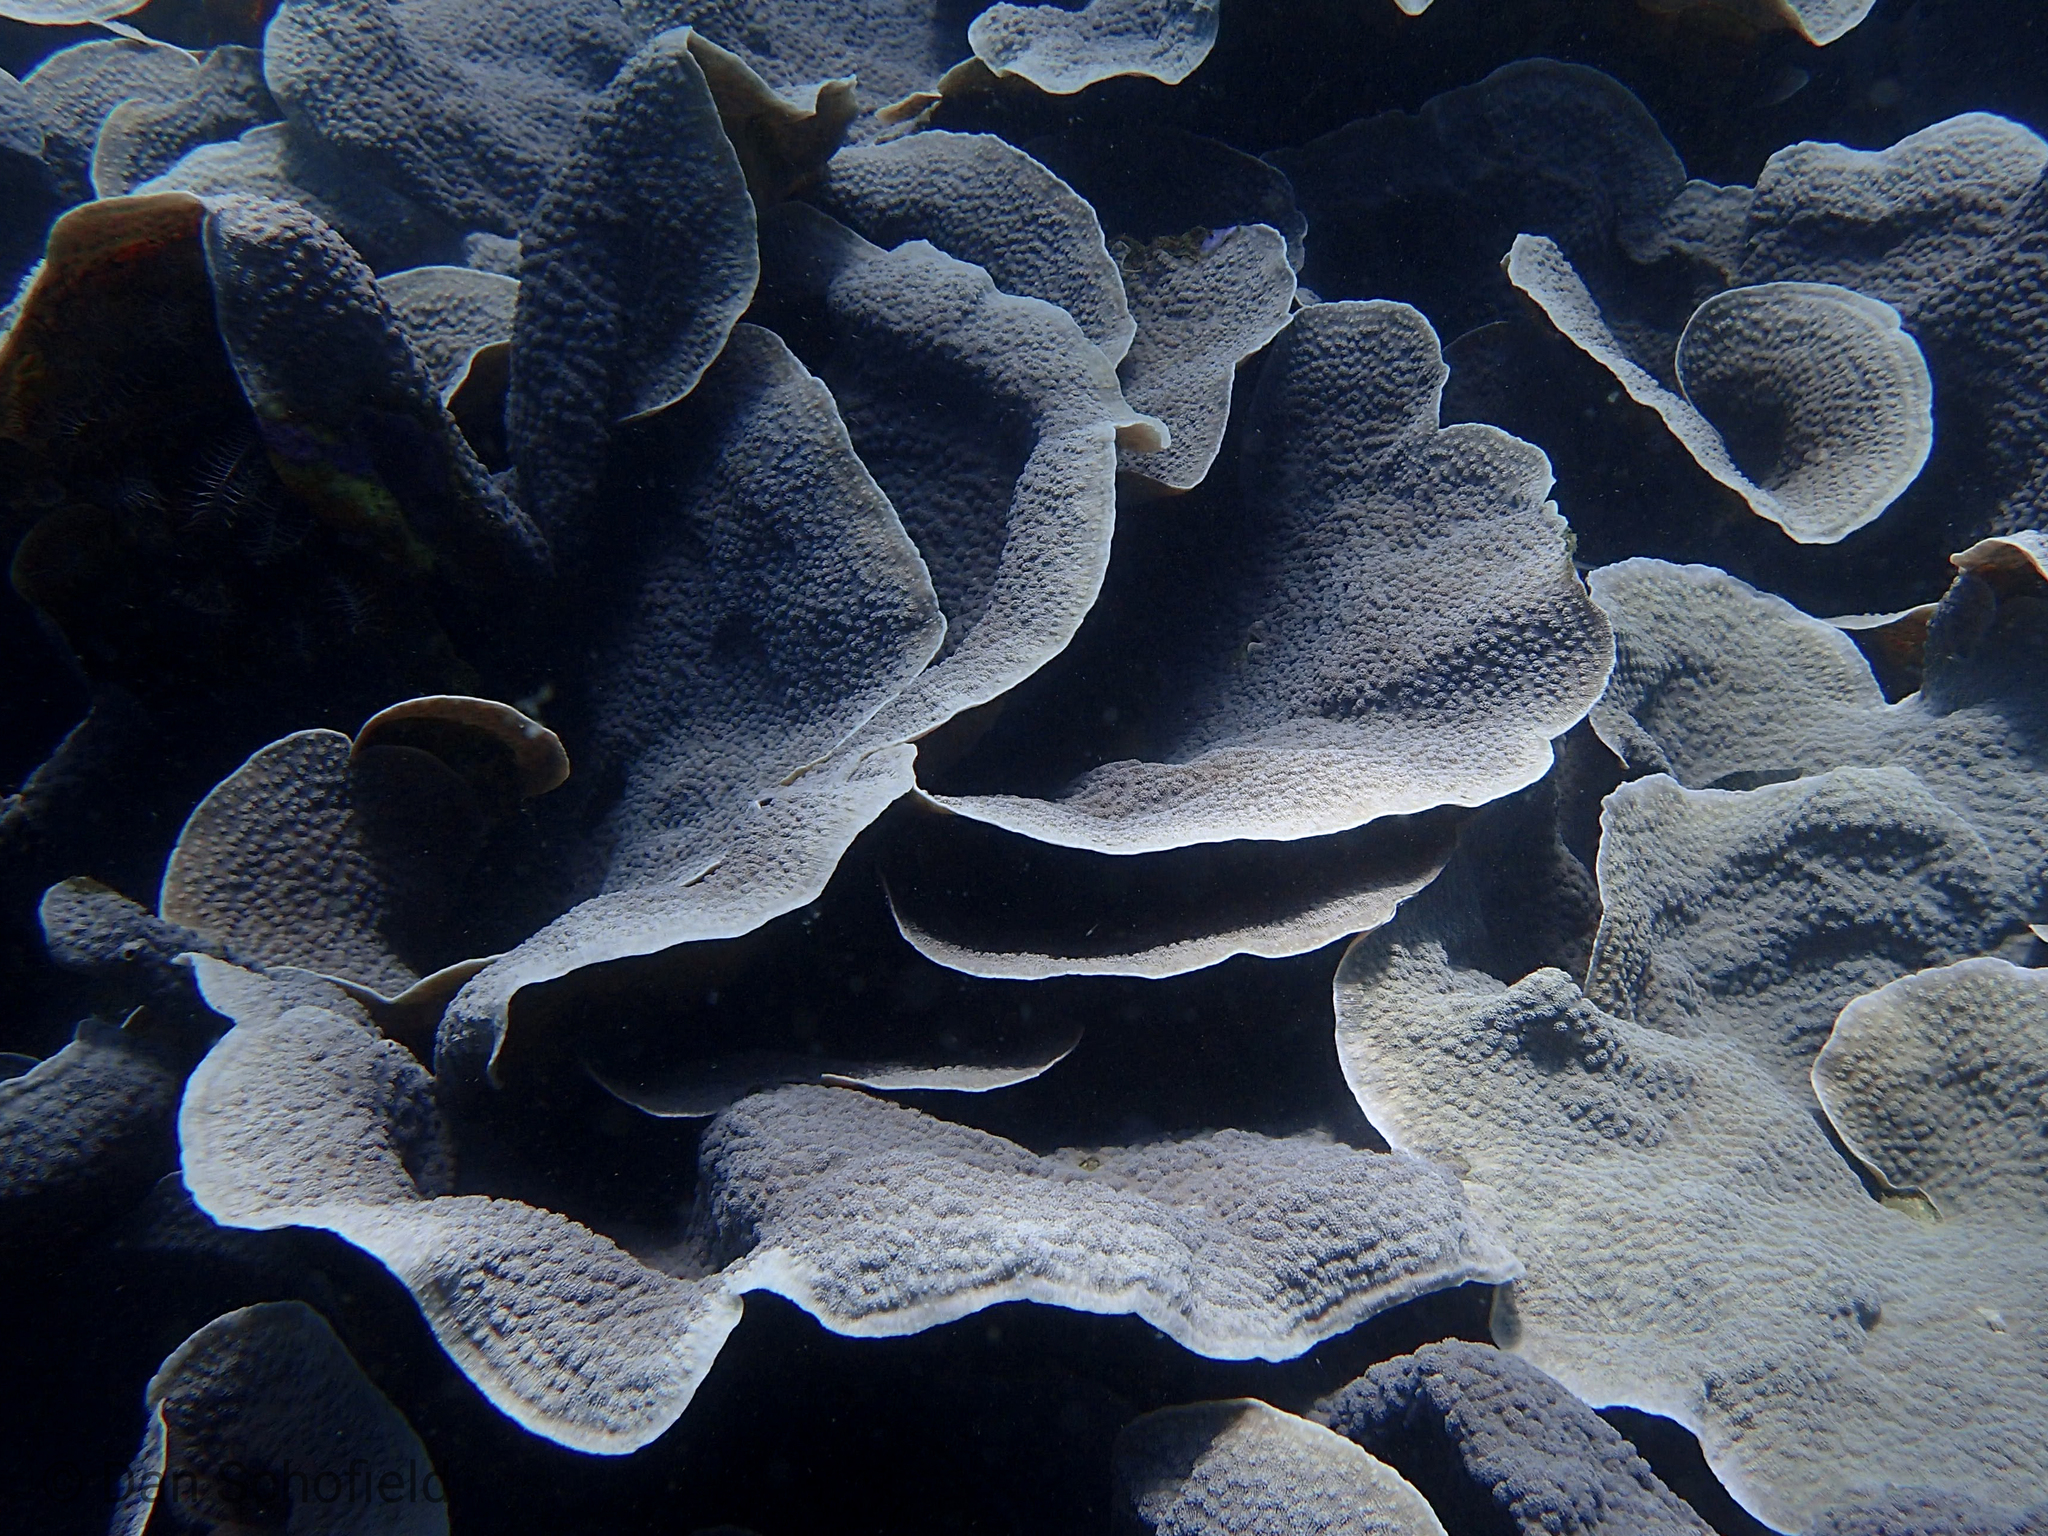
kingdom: Animalia
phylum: Cnidaria
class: Anthozoa
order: Scleractinia
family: Merulinidae
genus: Echinopora
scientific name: Echinopora lamellosa
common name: Hedgehog coral
